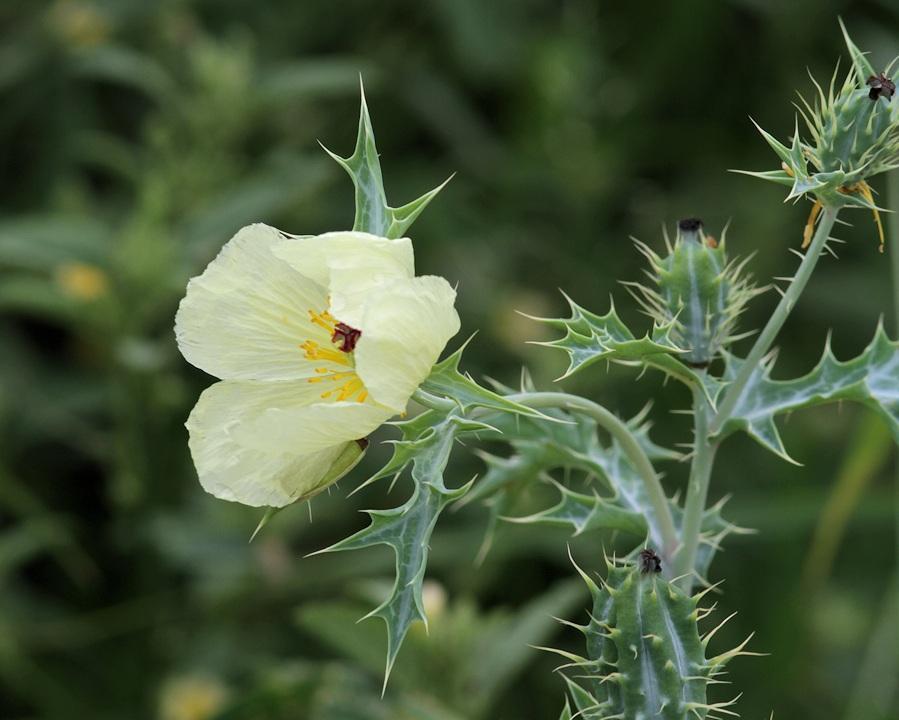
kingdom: Plantae
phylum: Tracheophyta
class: Magnoliopsida
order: Ranunculales
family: Papaveraceae
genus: Argemone
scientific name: Argemone ochroleuca
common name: White-flower mexican-poppy
